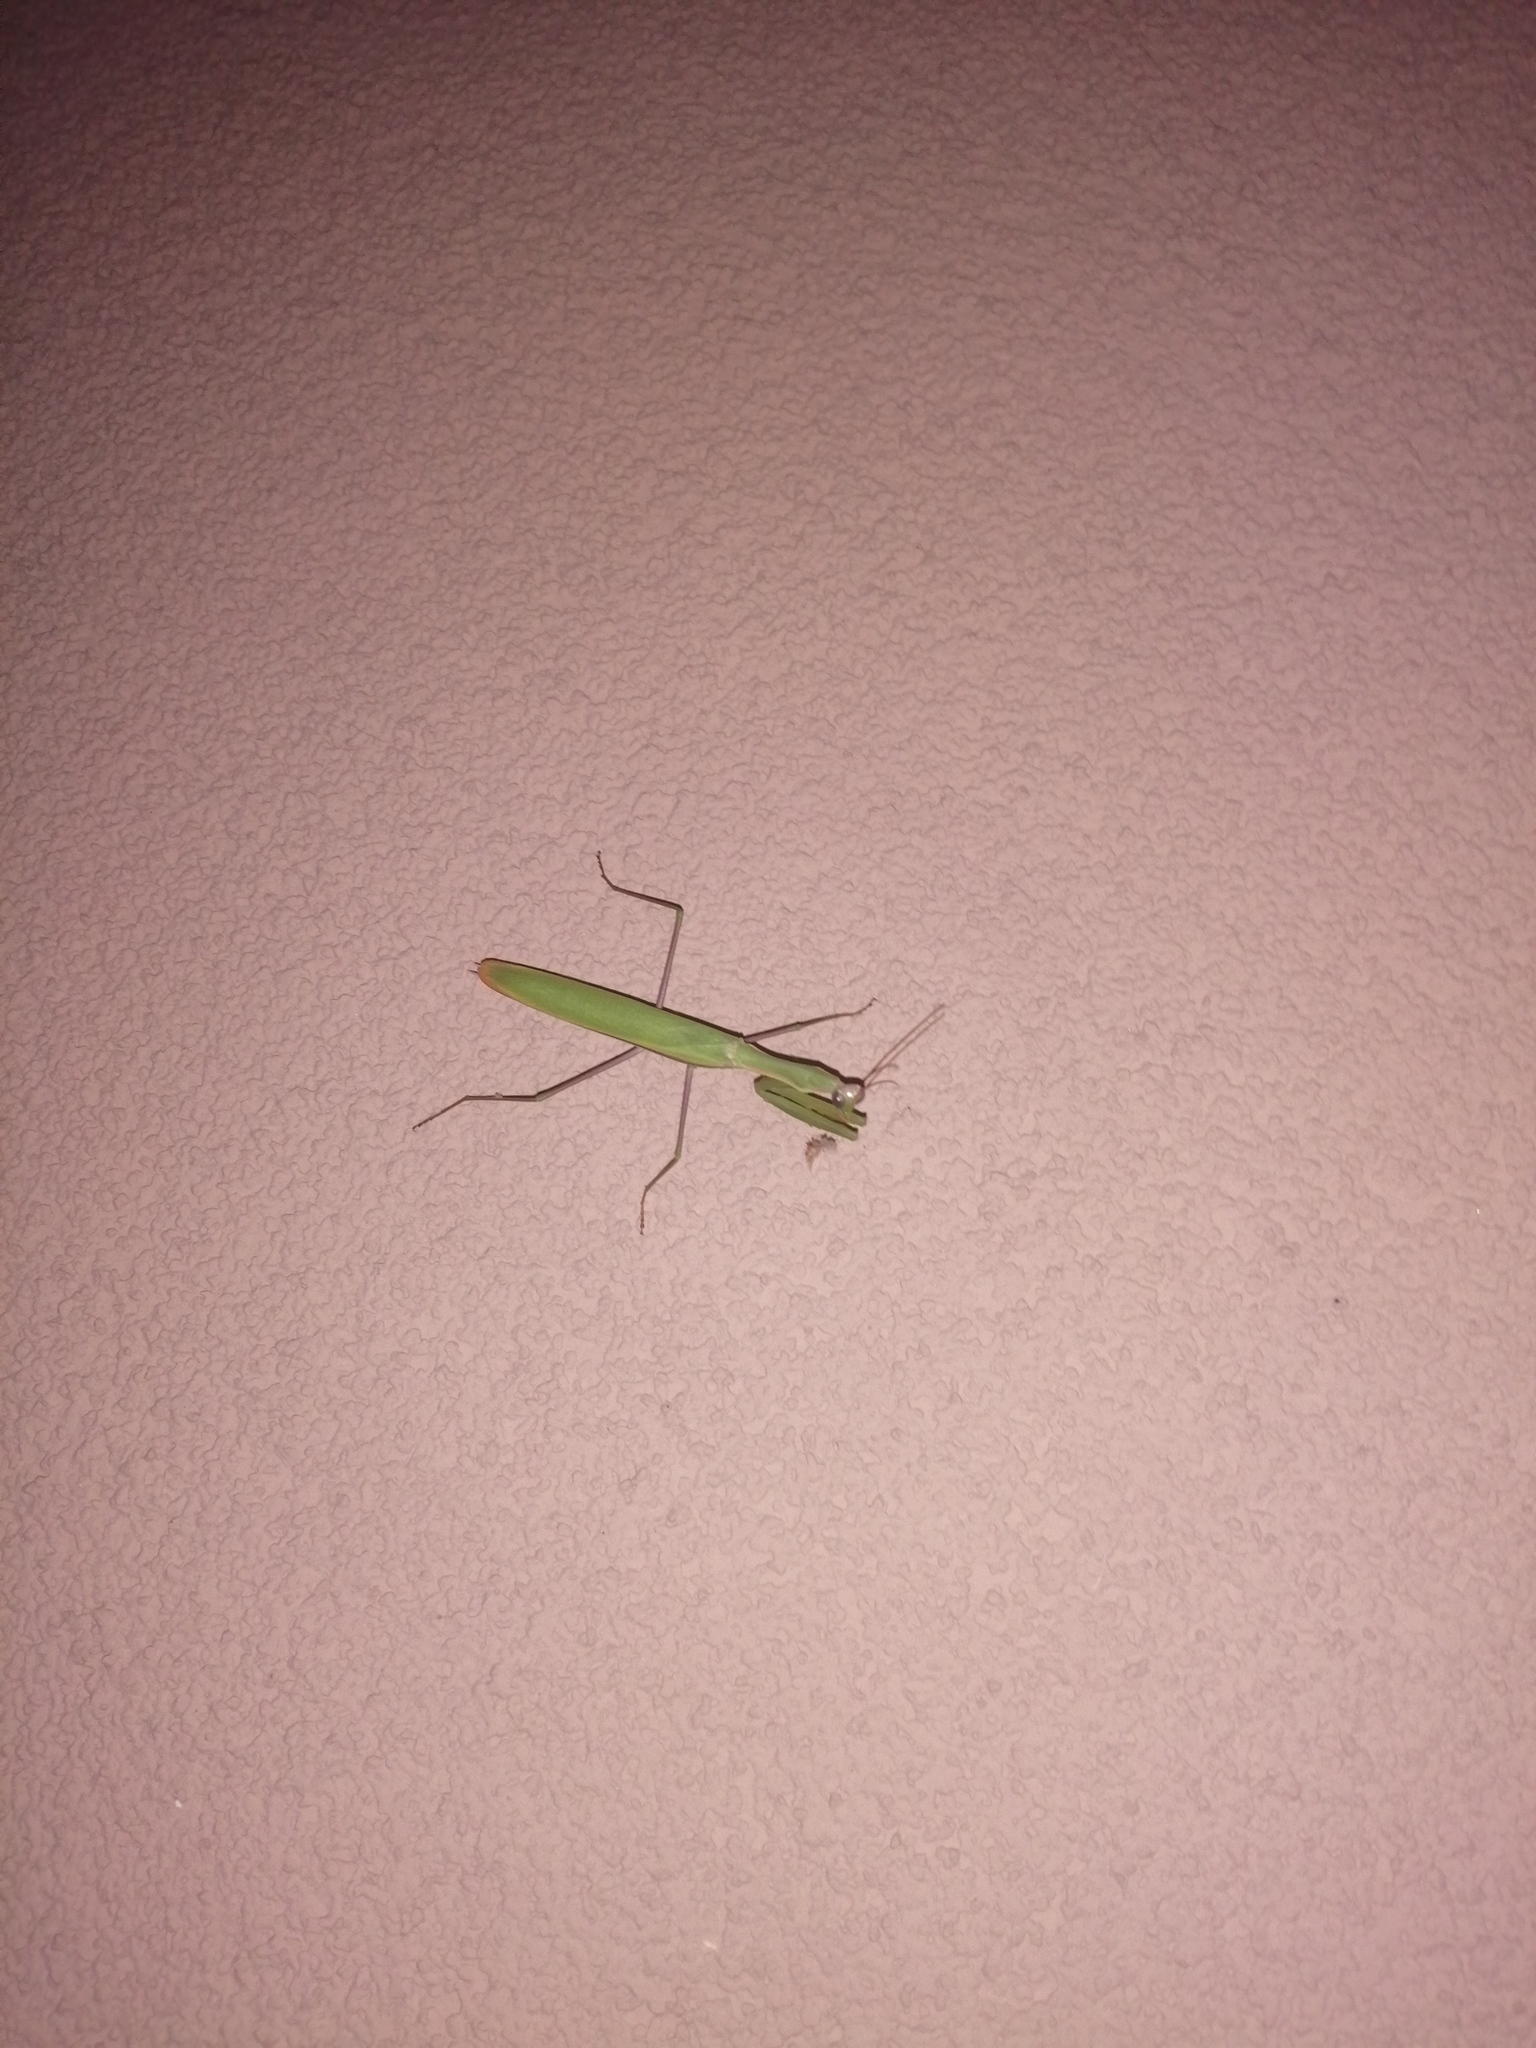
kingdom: Animalia
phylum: Arthropoda
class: Insecta
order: Mantodea
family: Mantidae
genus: Mantis
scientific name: Mantis religiosa
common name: Praying mantis
